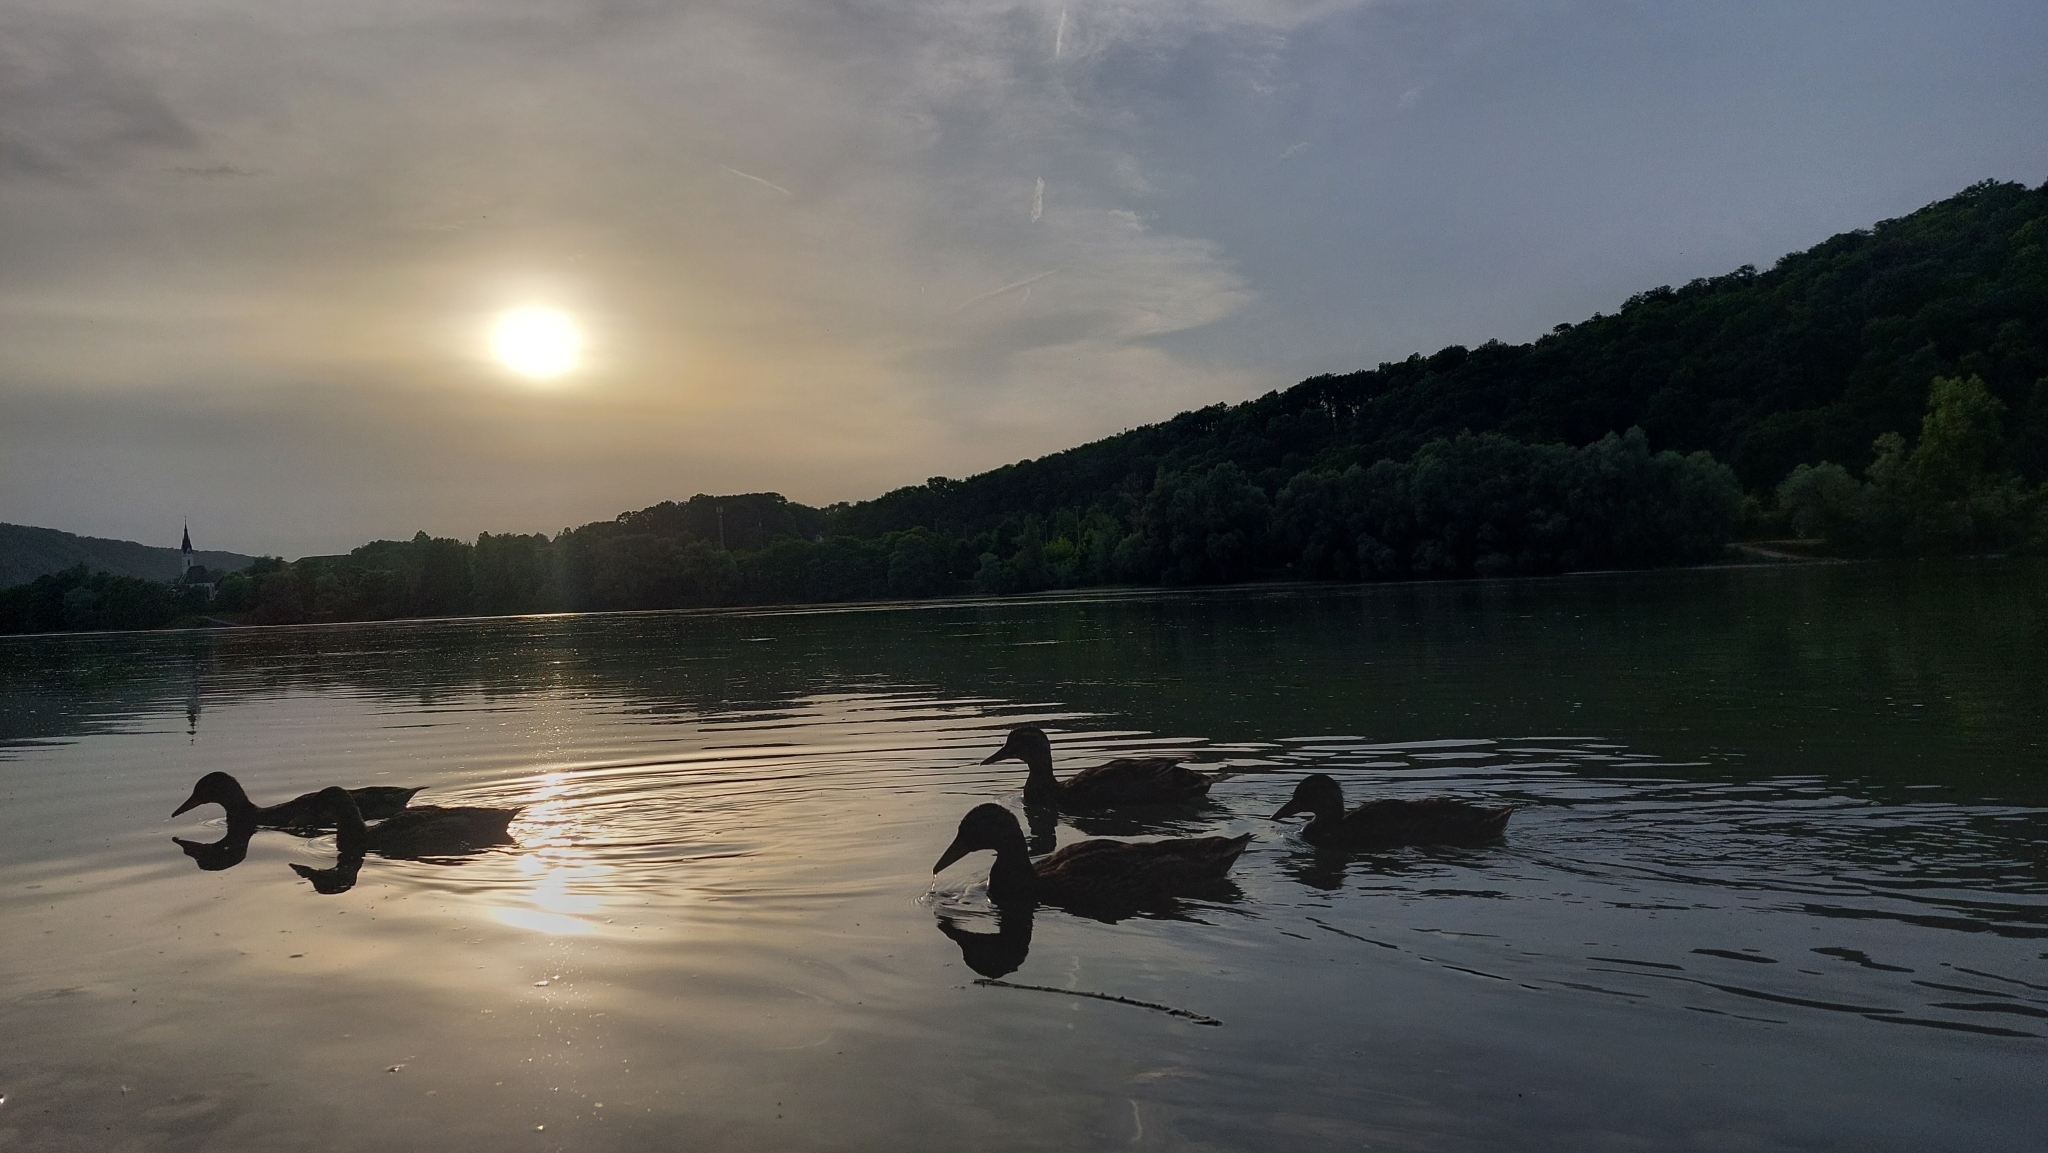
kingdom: Animalia
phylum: Chordata
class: Aves
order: Anseriformes
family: Anatidae
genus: Anas
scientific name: Anas platyrhynchos
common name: Mallard
